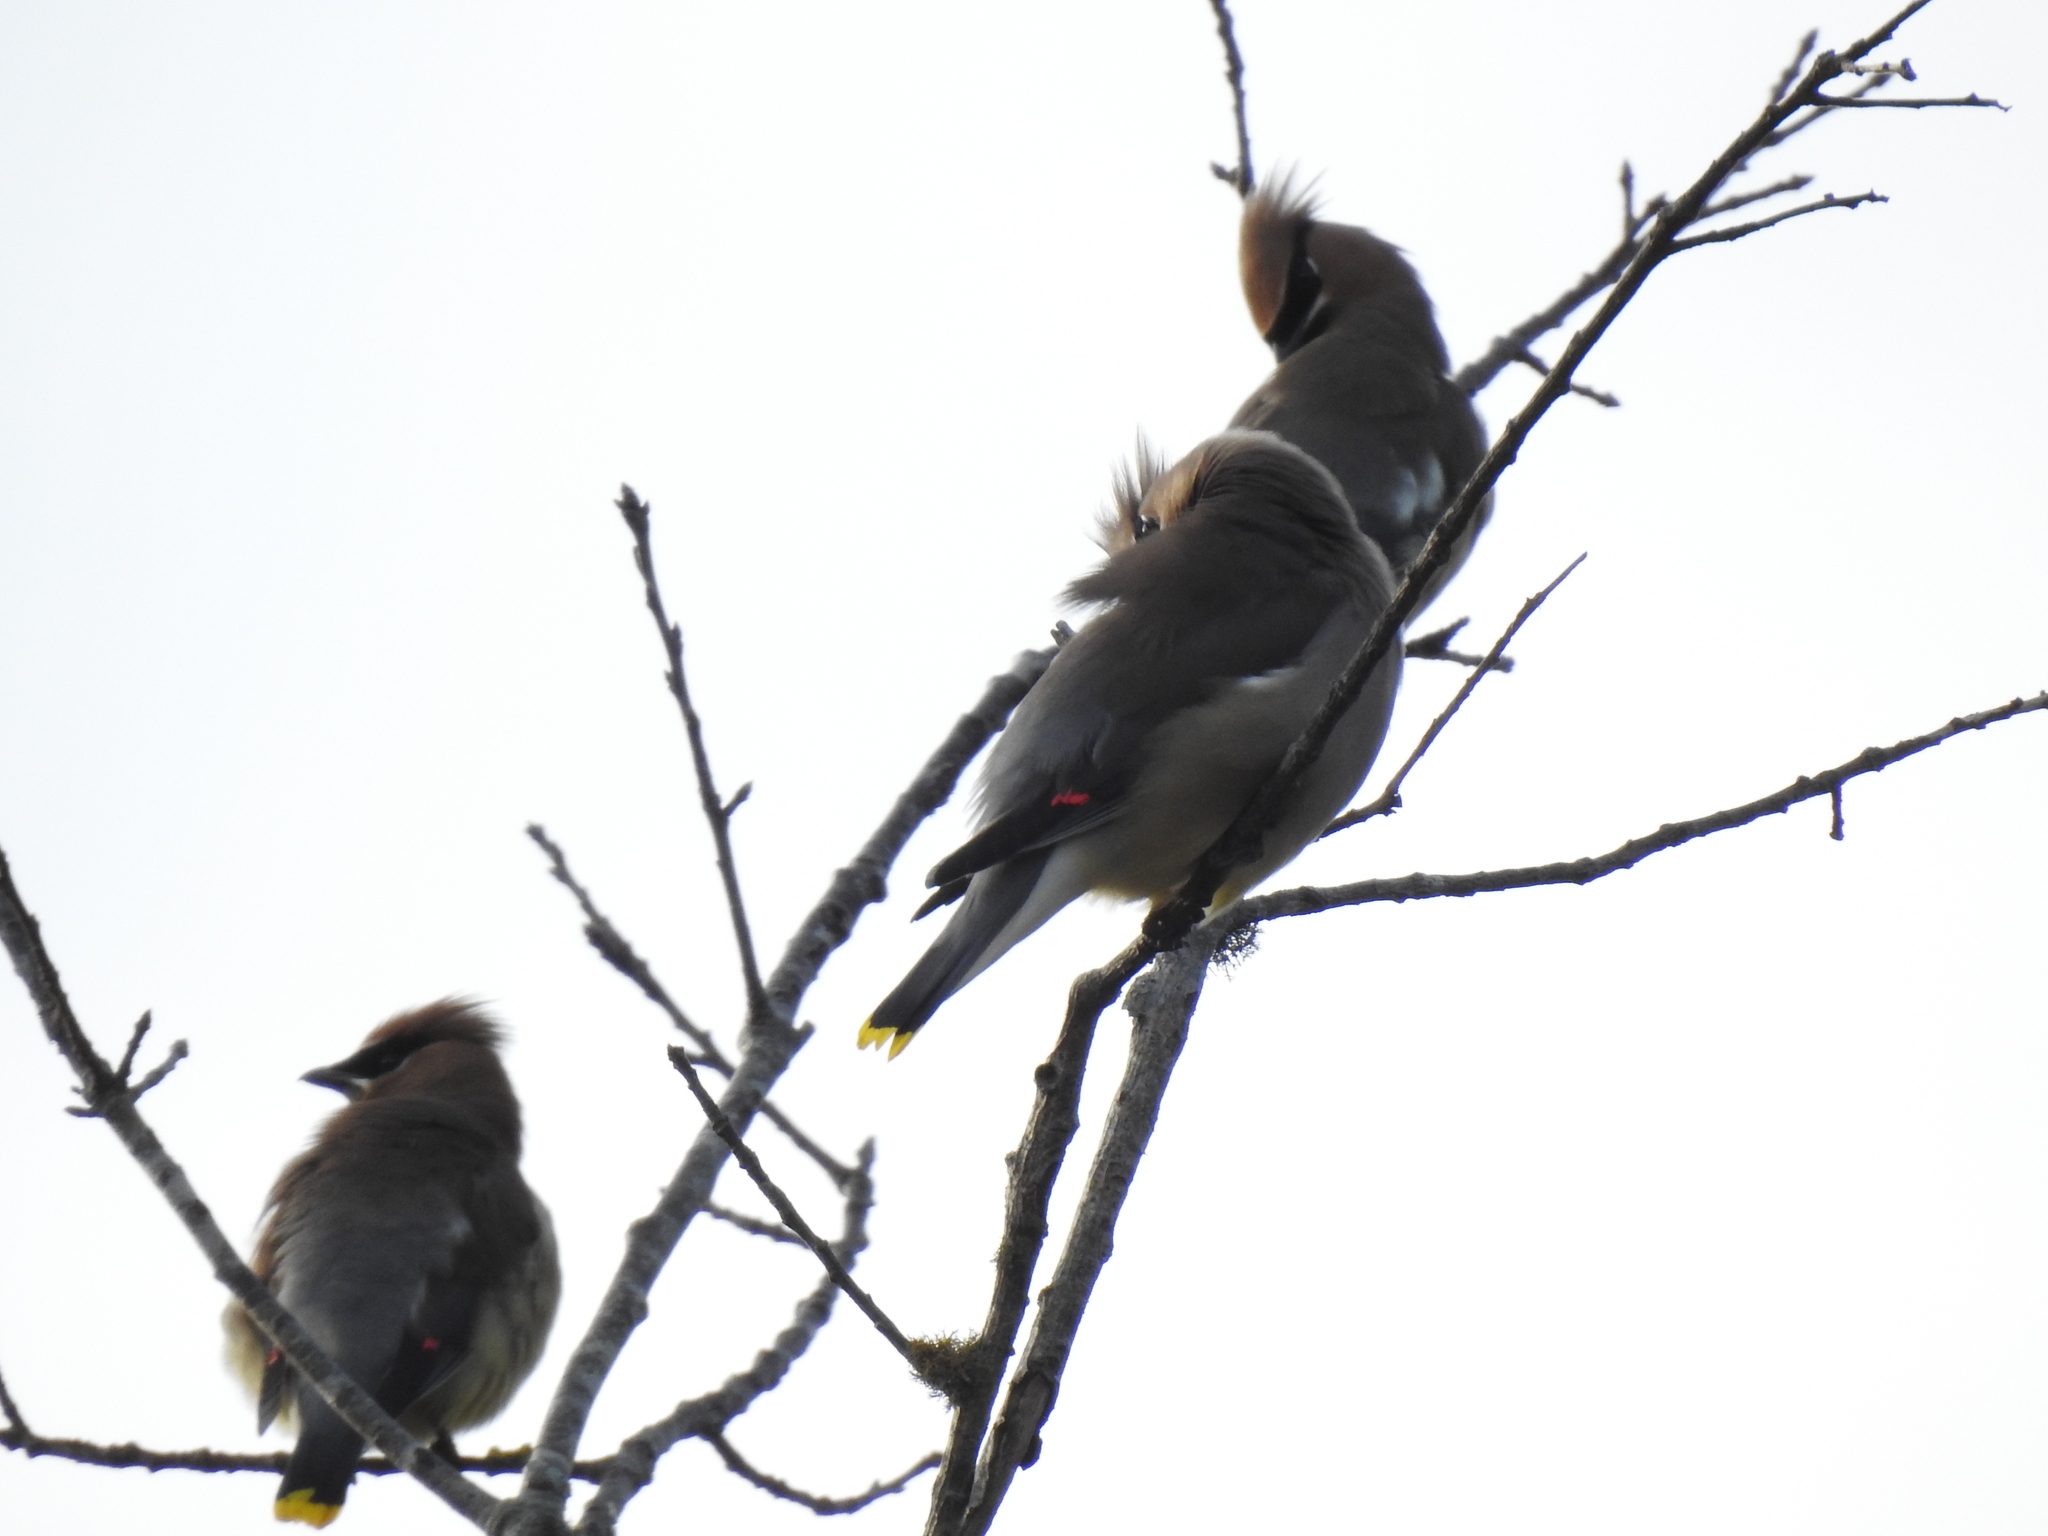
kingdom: Animalia
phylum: Chordata
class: Aves
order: Passeriformes
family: Bombycillidae
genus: Bombycilla
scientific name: Bombycilla cedrorum
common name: Cedar waxwing
